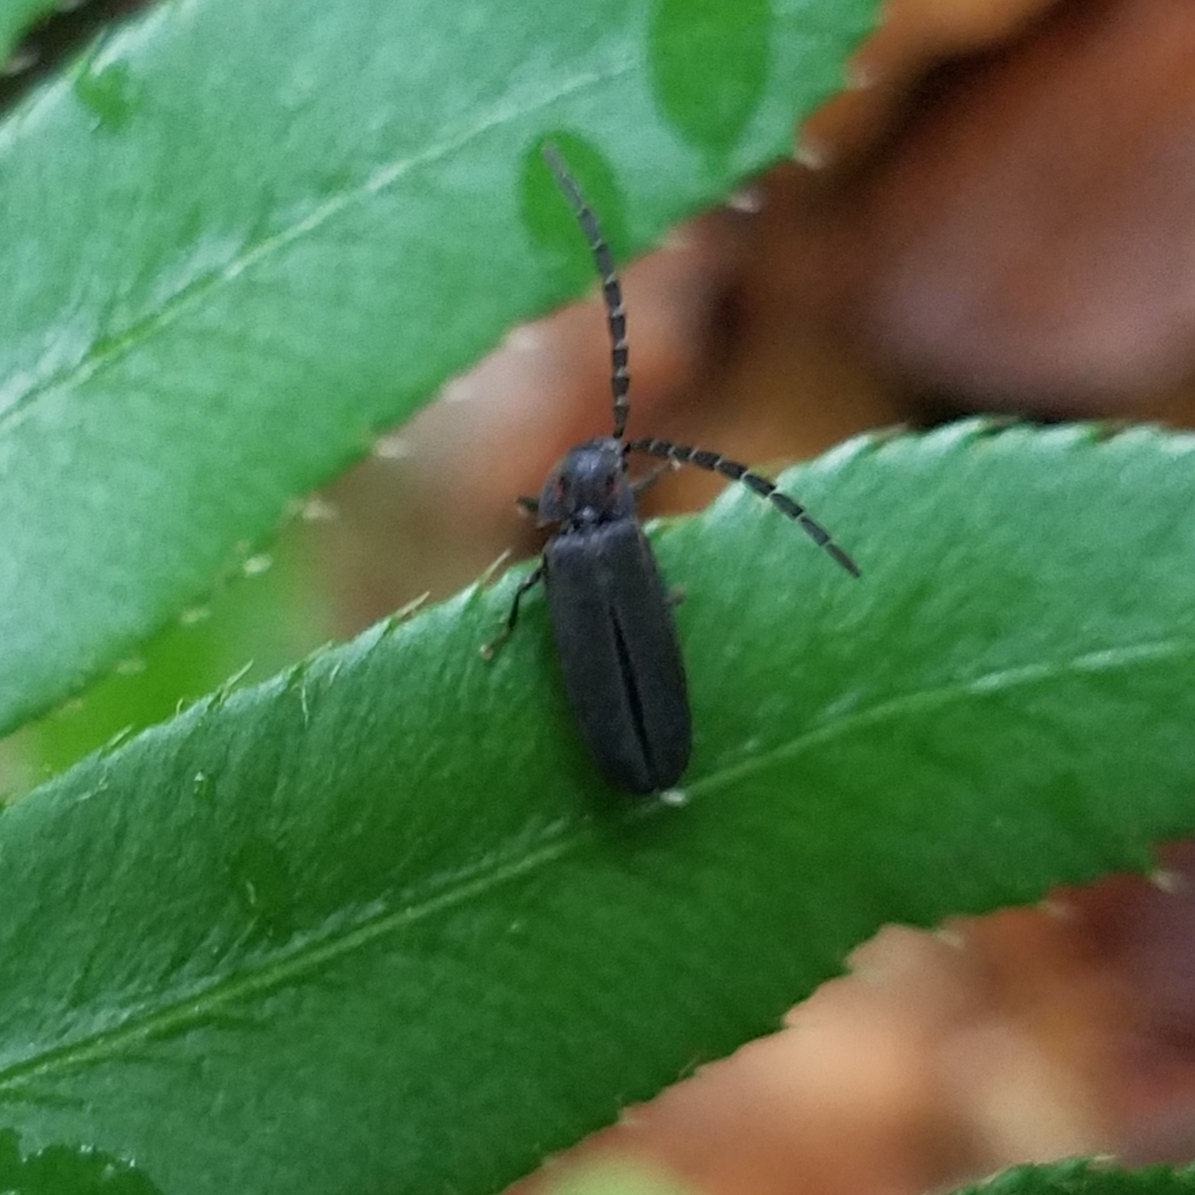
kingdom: Animalia
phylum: Arthropoda
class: Insecta
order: Coleoptera
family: Lampyridae
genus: Lucidota
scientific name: Lucidota punctata
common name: Dotted firefly
